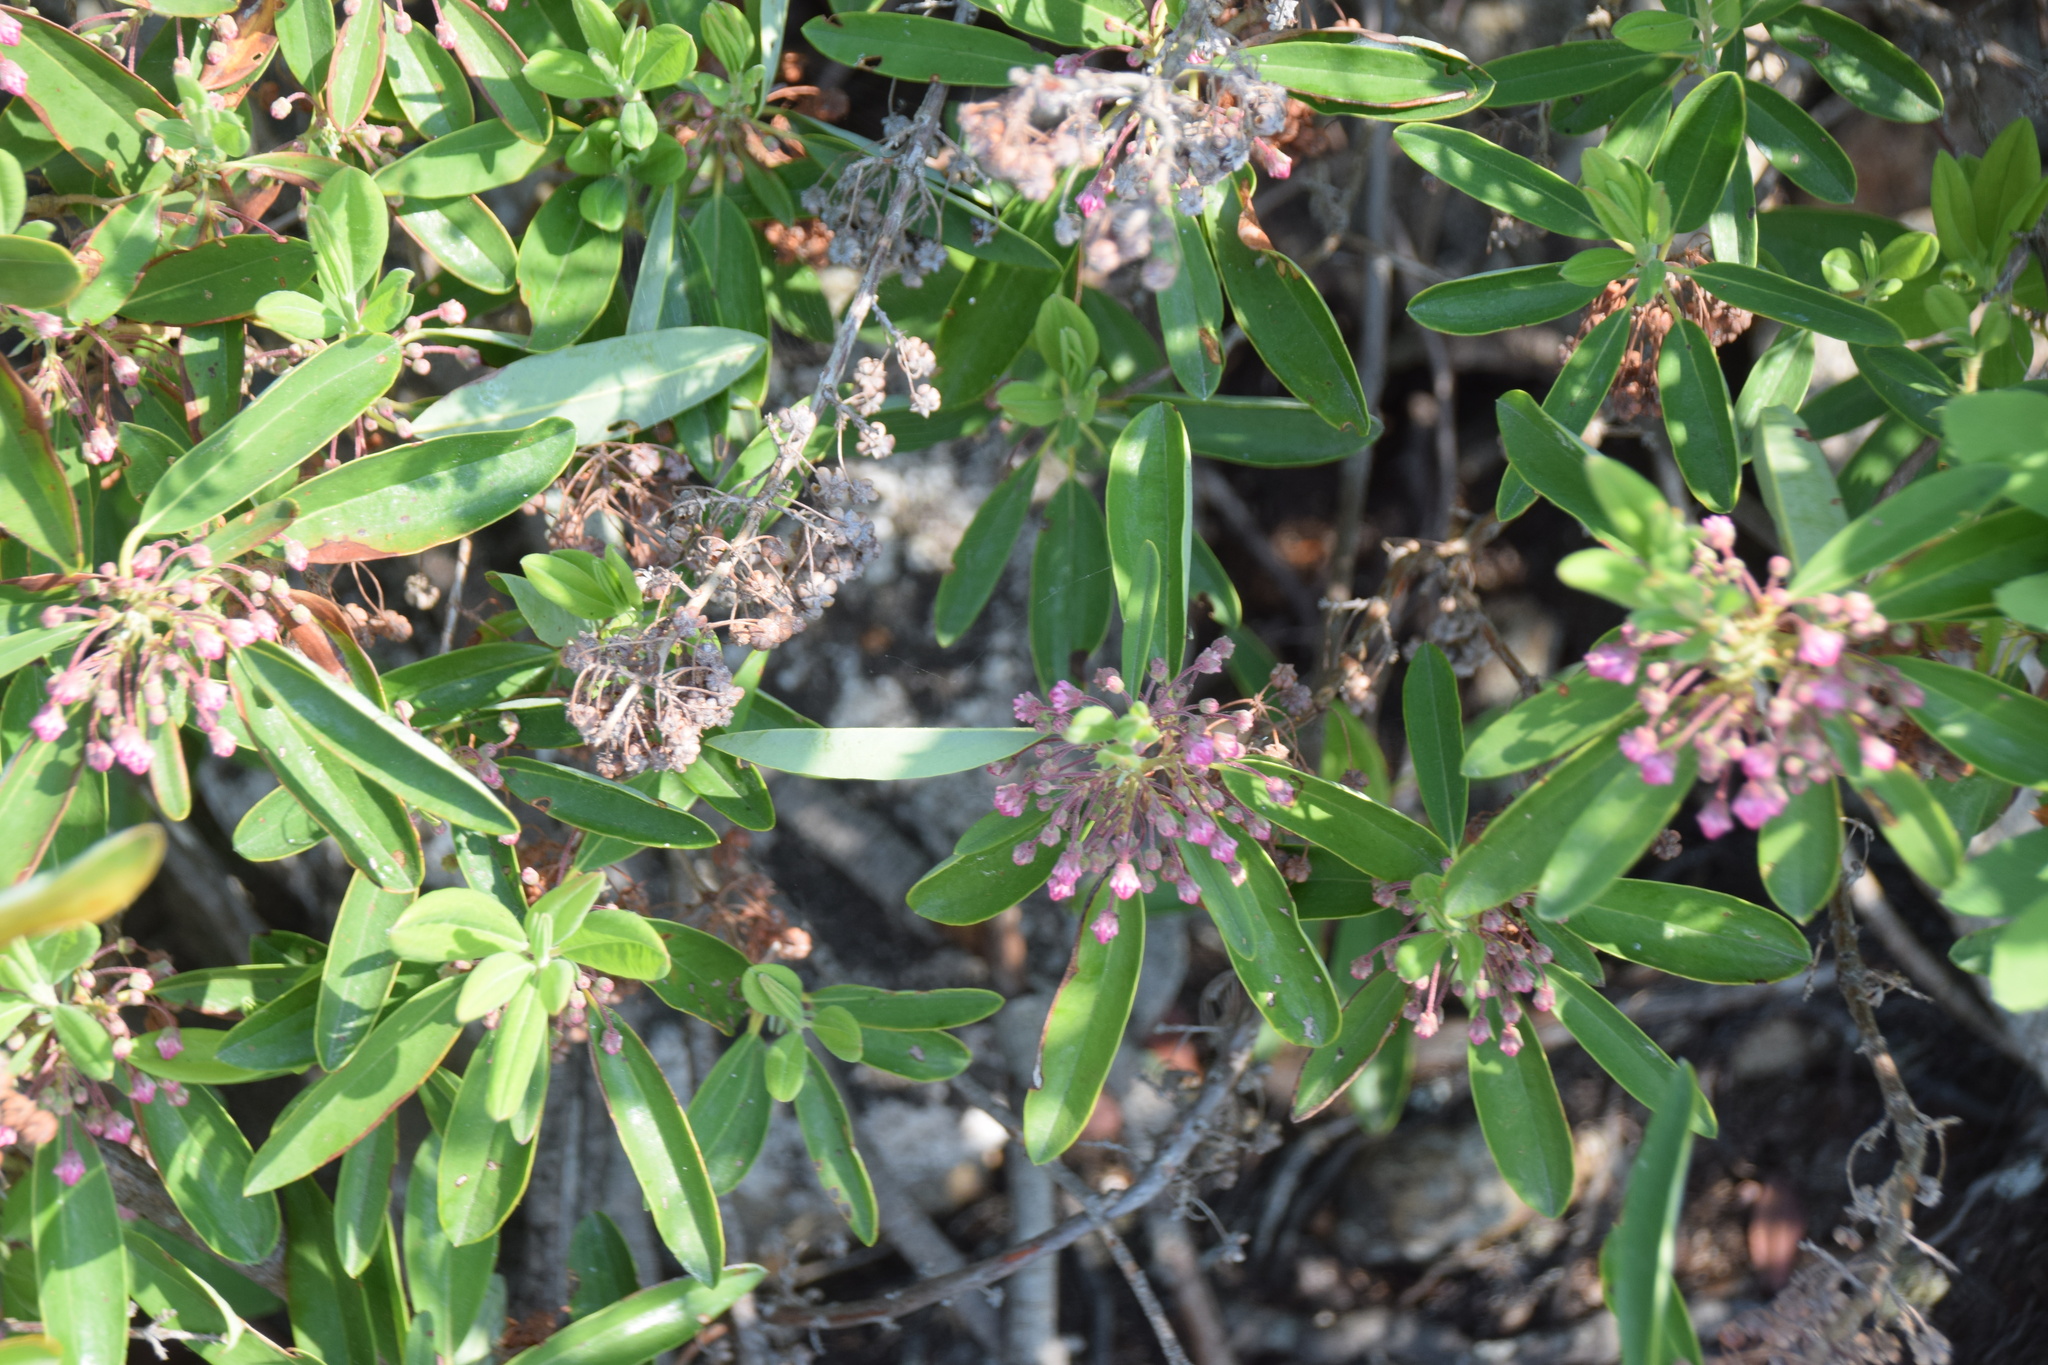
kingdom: Plantae
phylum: Tracheophyta
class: Magnoliopsida
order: Ericales
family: Ericaceae
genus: Kalmia
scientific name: Kalmia angustifolia
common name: Sheep-laurel
